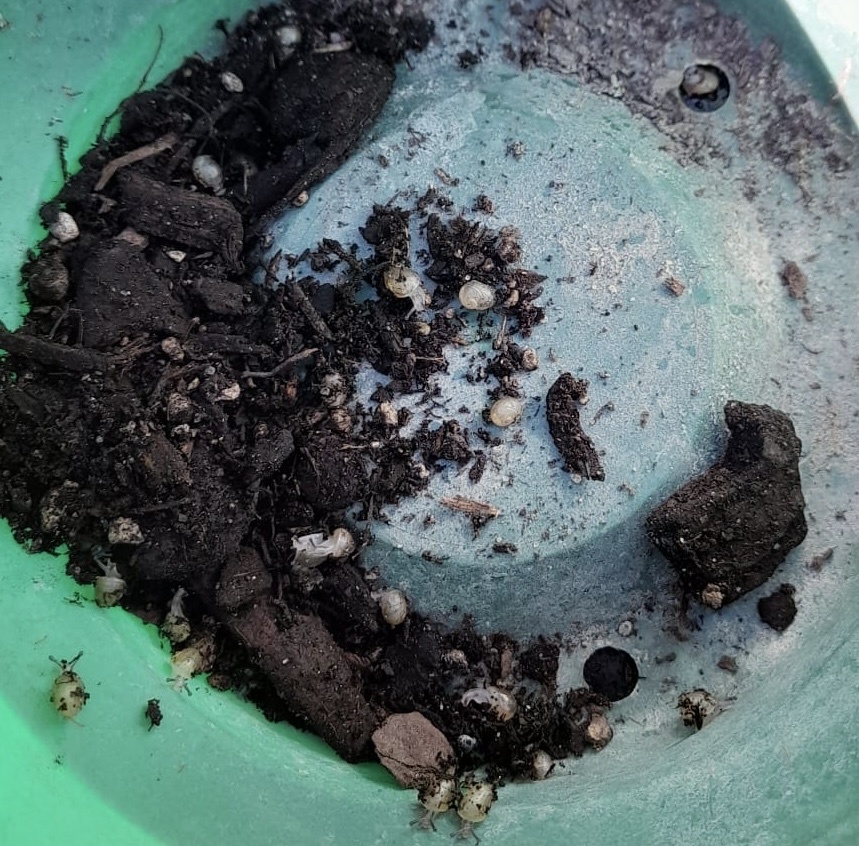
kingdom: Animalia
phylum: Mollusca
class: Gastropoda
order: Stylommatophora
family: Helicidae
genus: Cornu
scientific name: Cornu aspersum
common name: Brown garden snail
